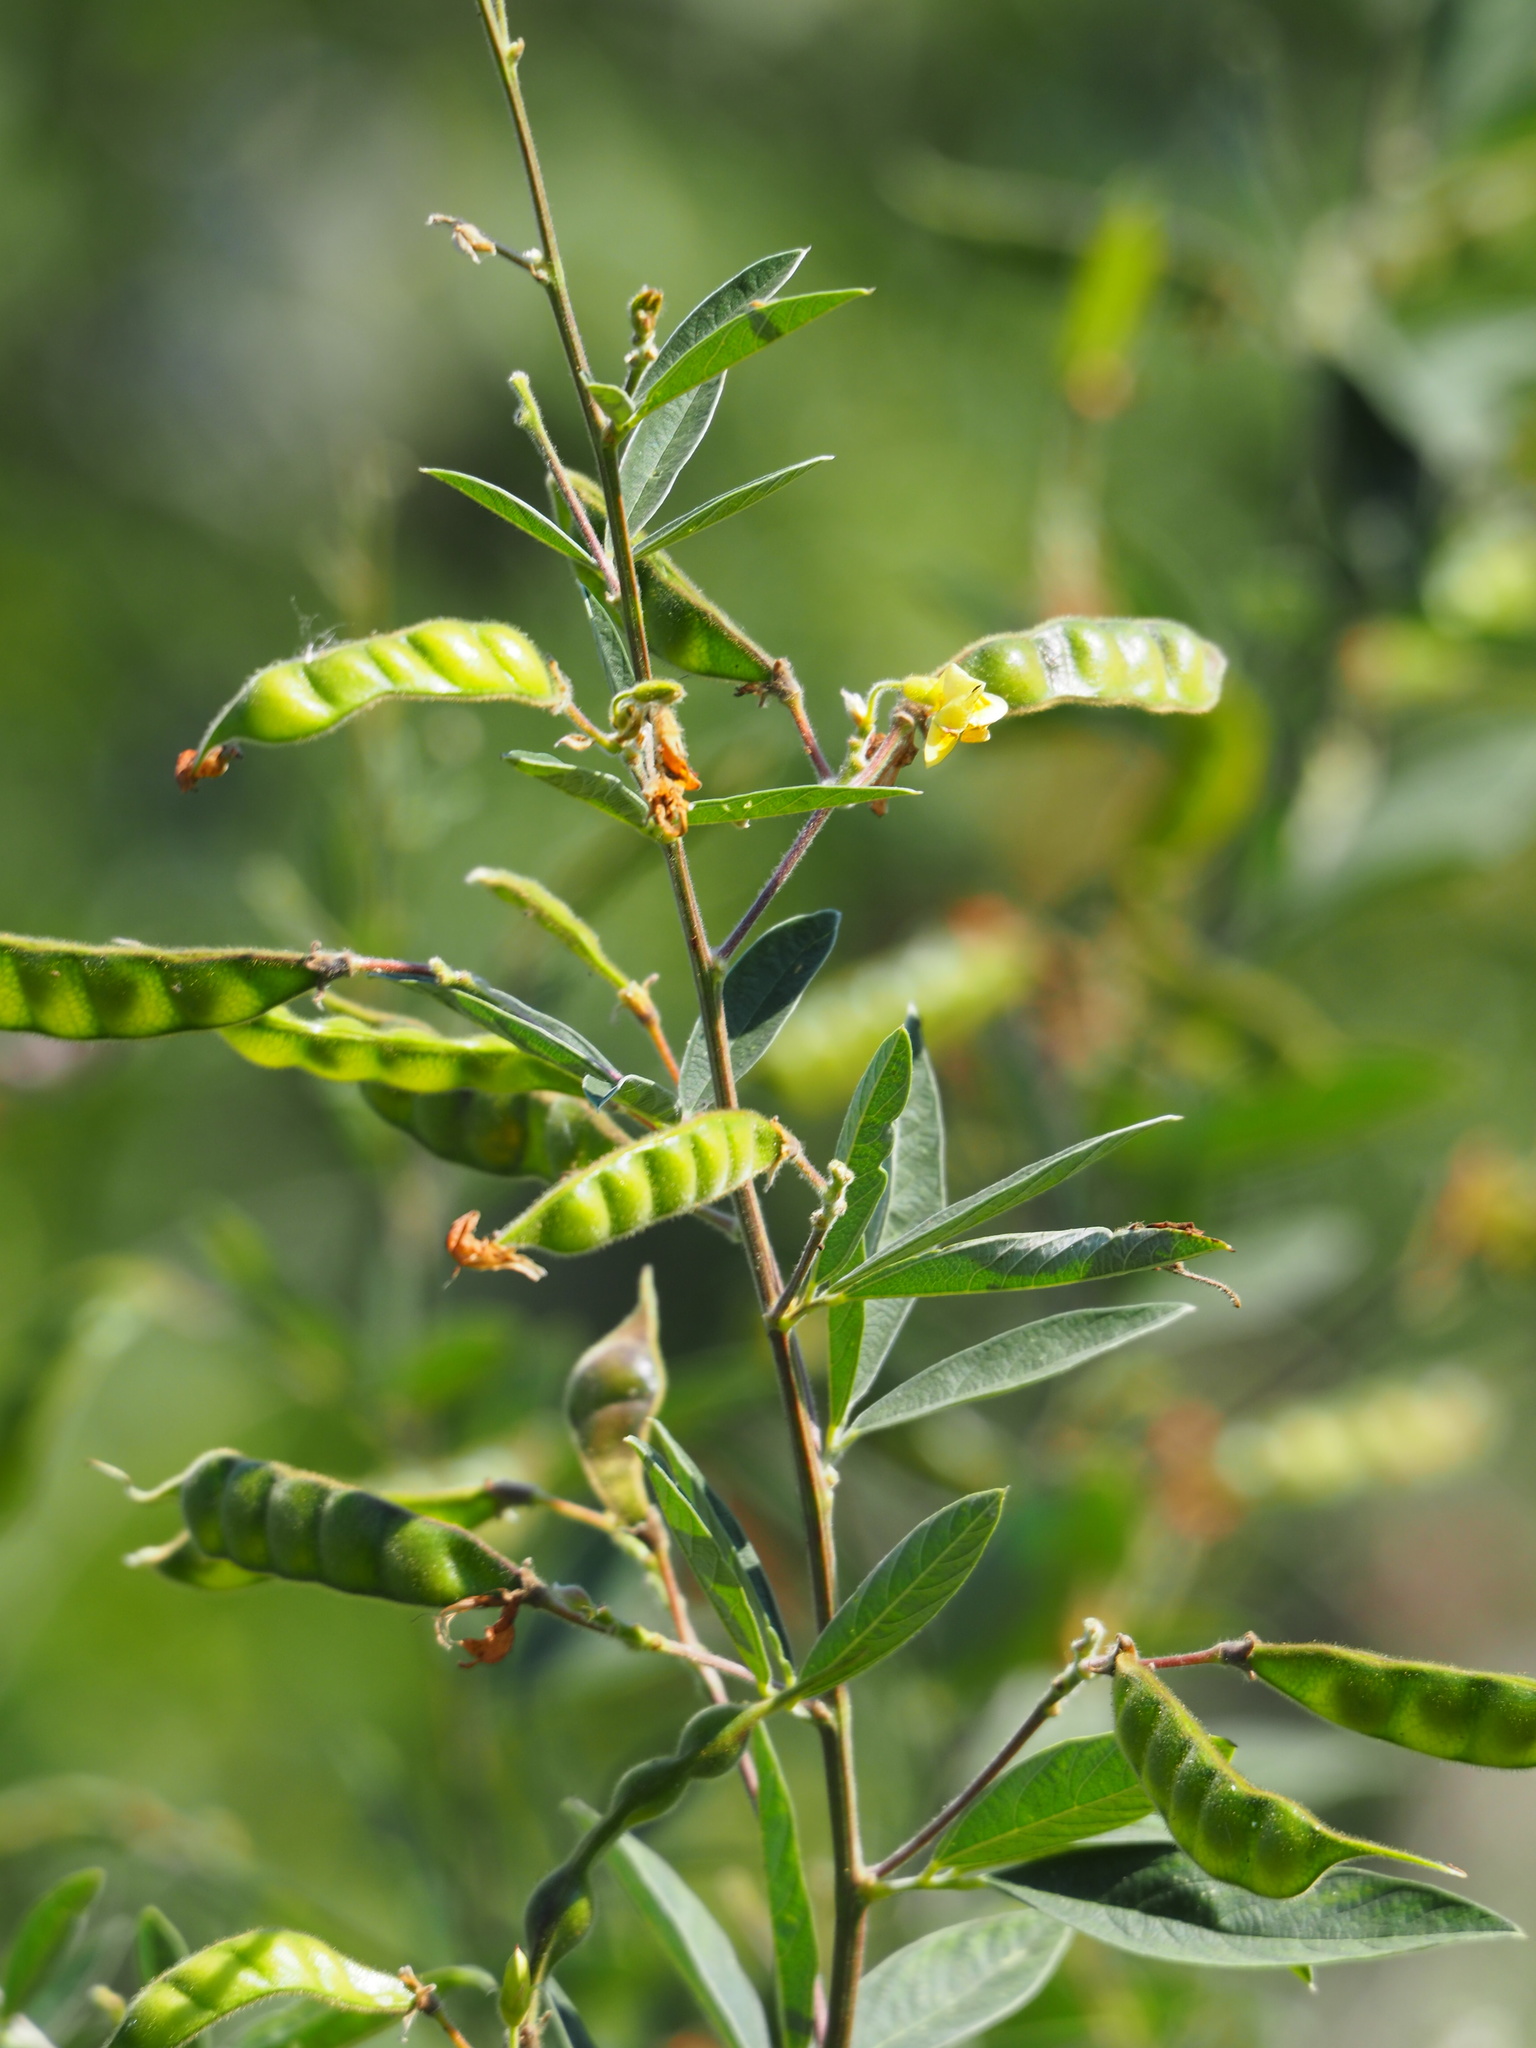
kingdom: Plantae
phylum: Tracheophyta
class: Magnoliopsida
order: Fabales
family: Fabaceae
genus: Cajanus
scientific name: Cajanus cajan
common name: Pigeonpea
